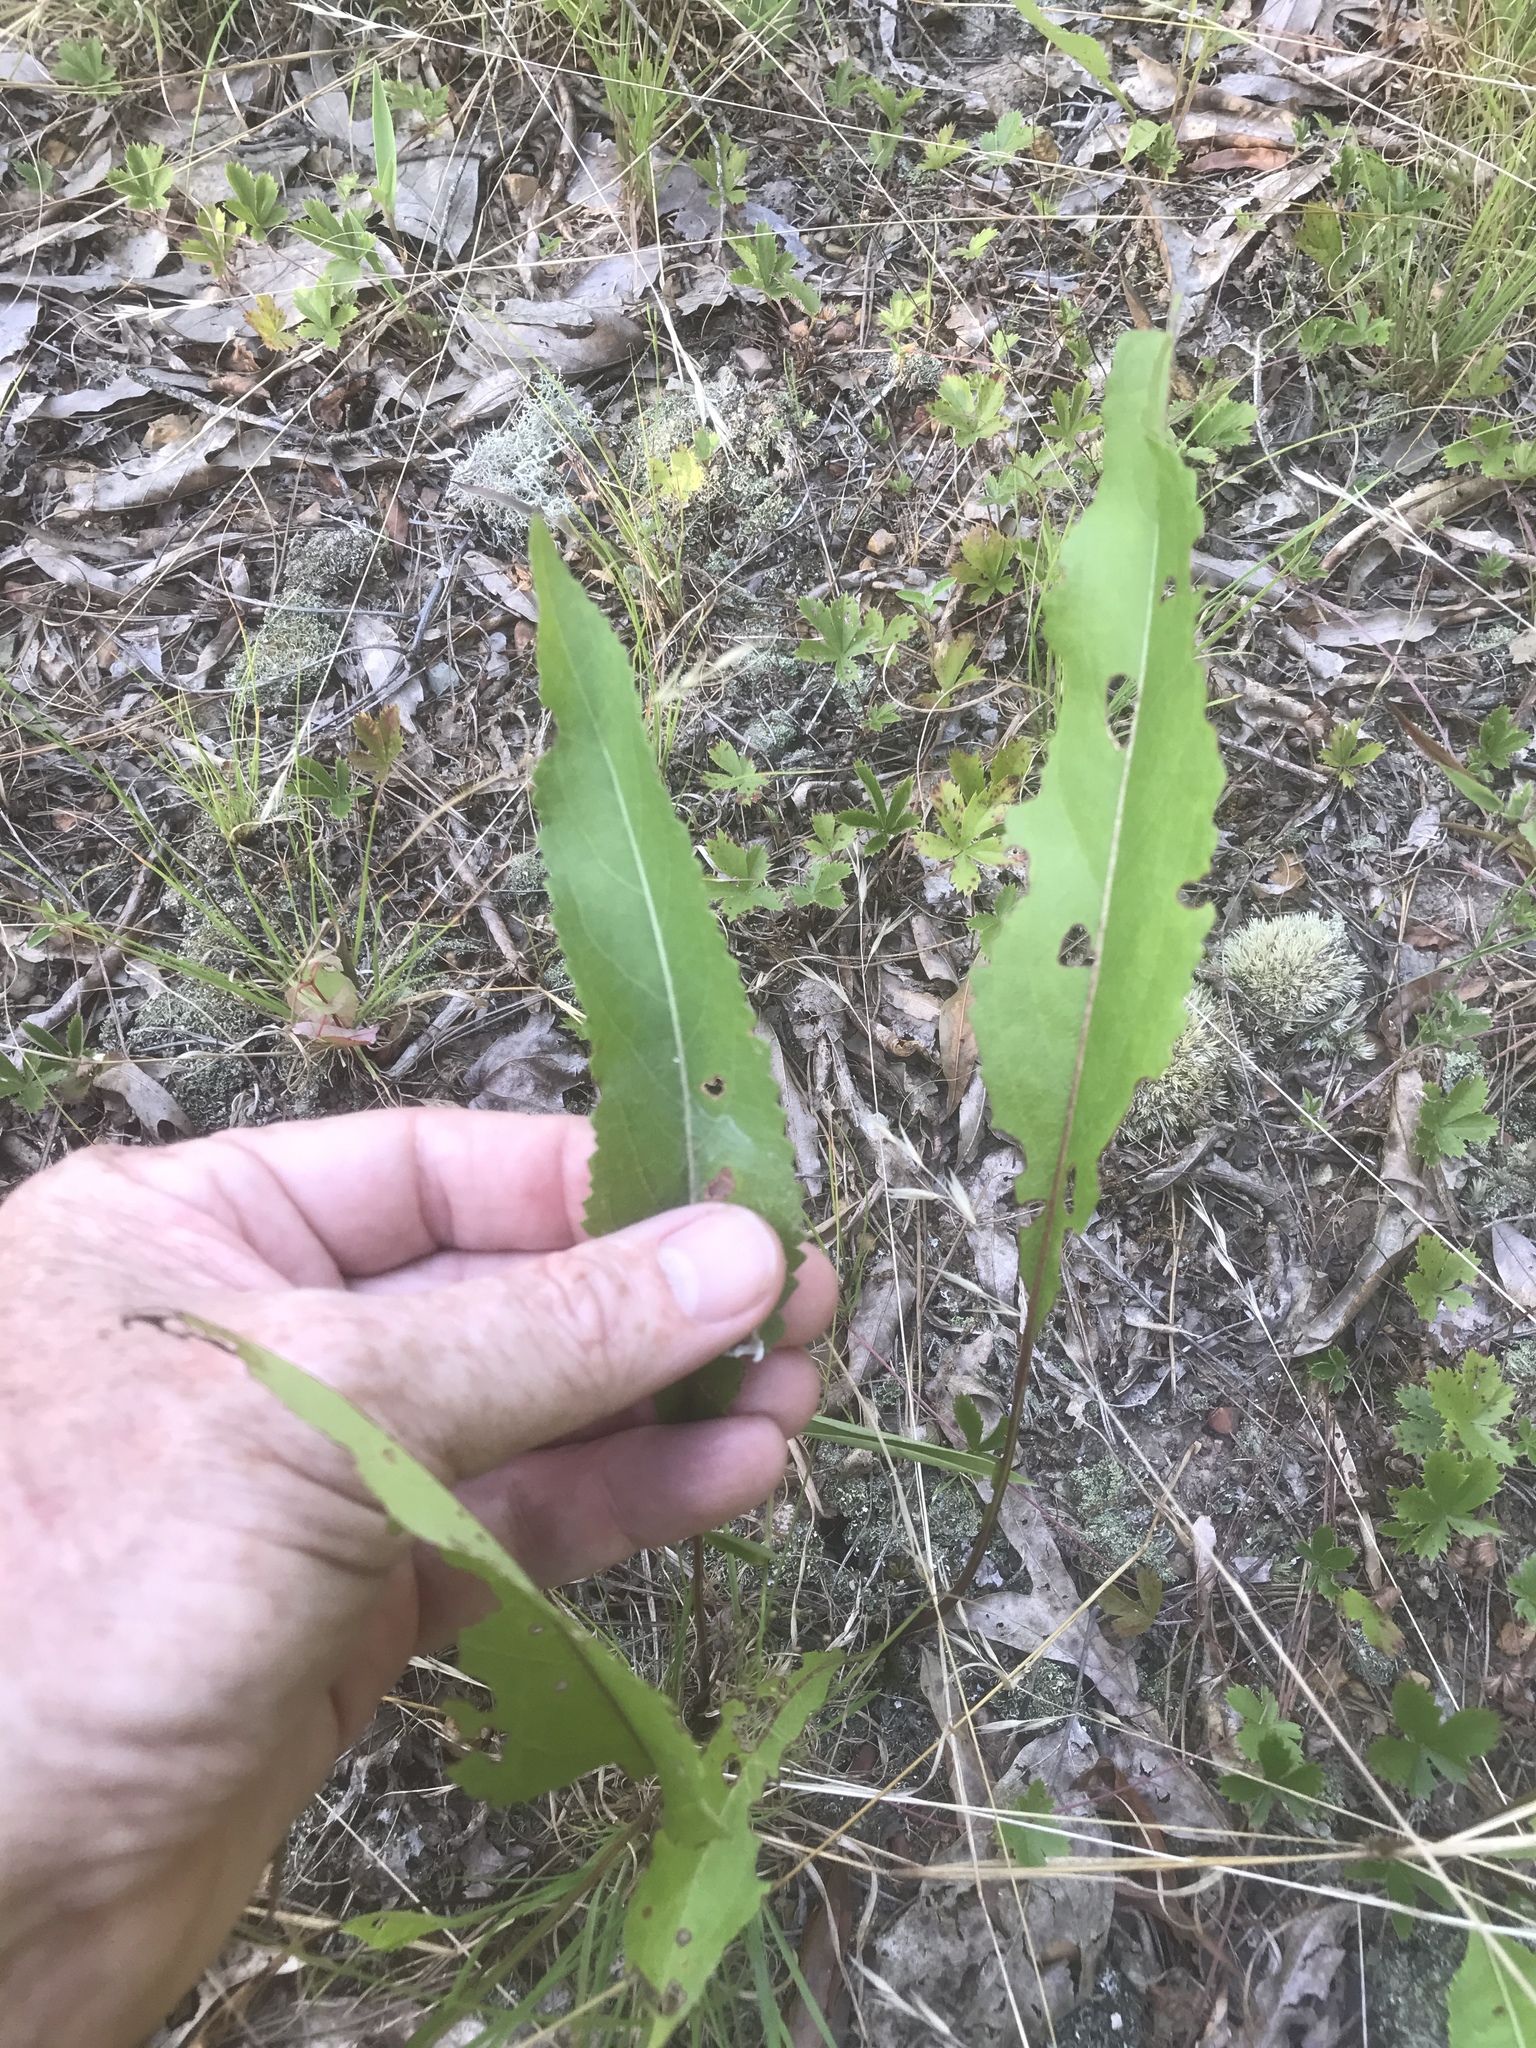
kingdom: Plantae
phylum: Tracheophyta
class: Magnoliopsida
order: Asterales
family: Asteraceae
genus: Parthenium
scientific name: Parthenium integrifolium
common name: American feverfew
